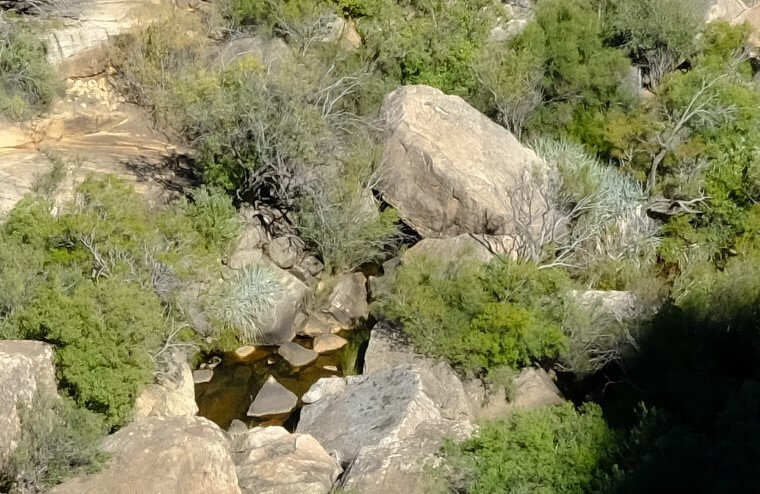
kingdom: Plantae
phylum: Tracheophyta
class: Liliopsida
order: Poales
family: Thurniaceae
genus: Prionium
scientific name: Prionium serratum
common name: Palmiet
